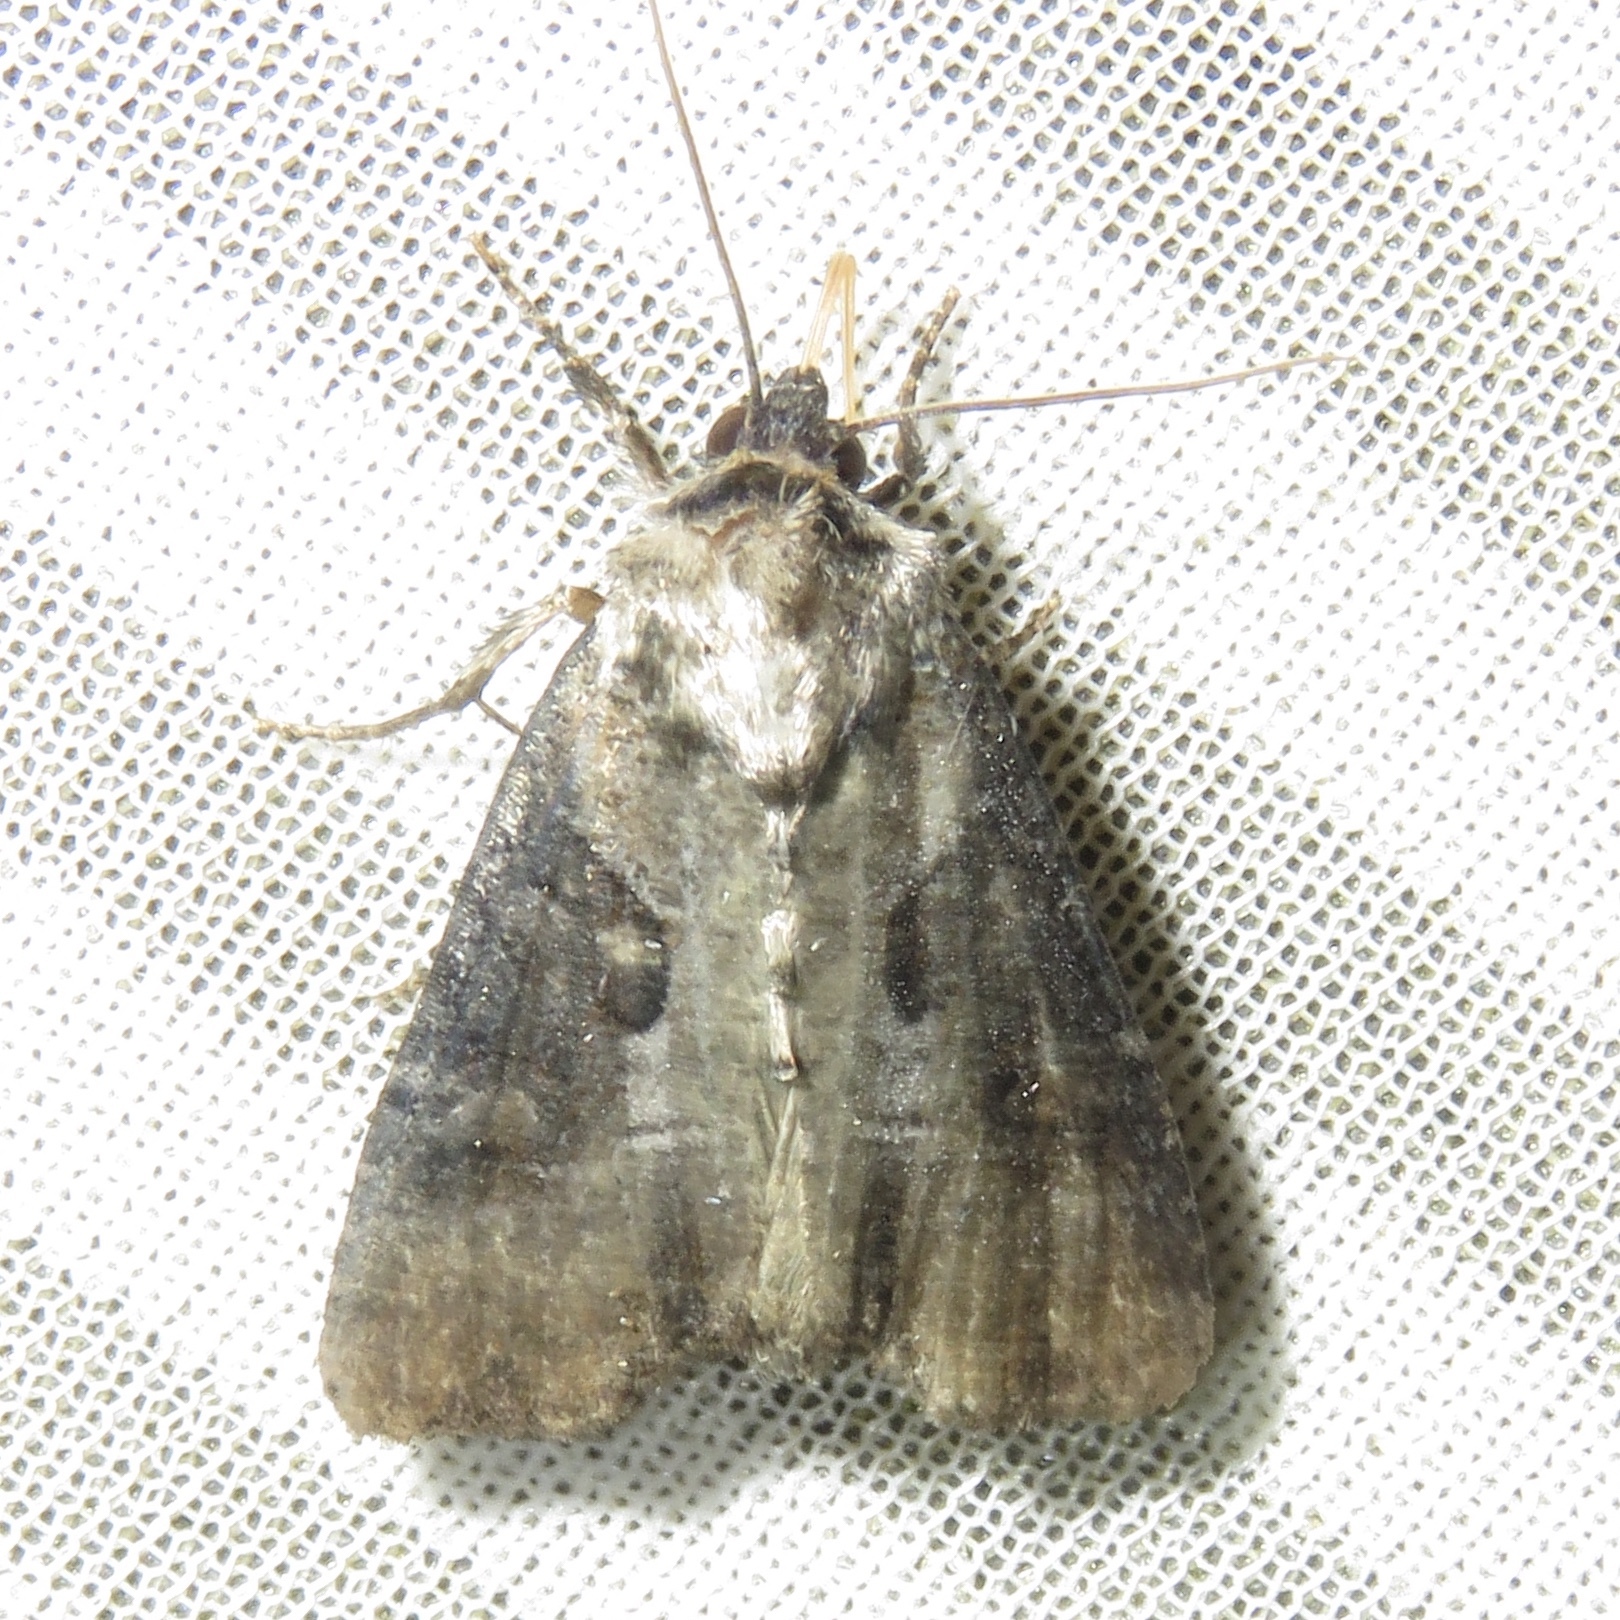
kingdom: Animalia
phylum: Arthropoda
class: Insecta
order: Lepidoptera
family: Noctuidae
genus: Lateroligia
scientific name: Lateroligia ophiogramma
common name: Double lobed
